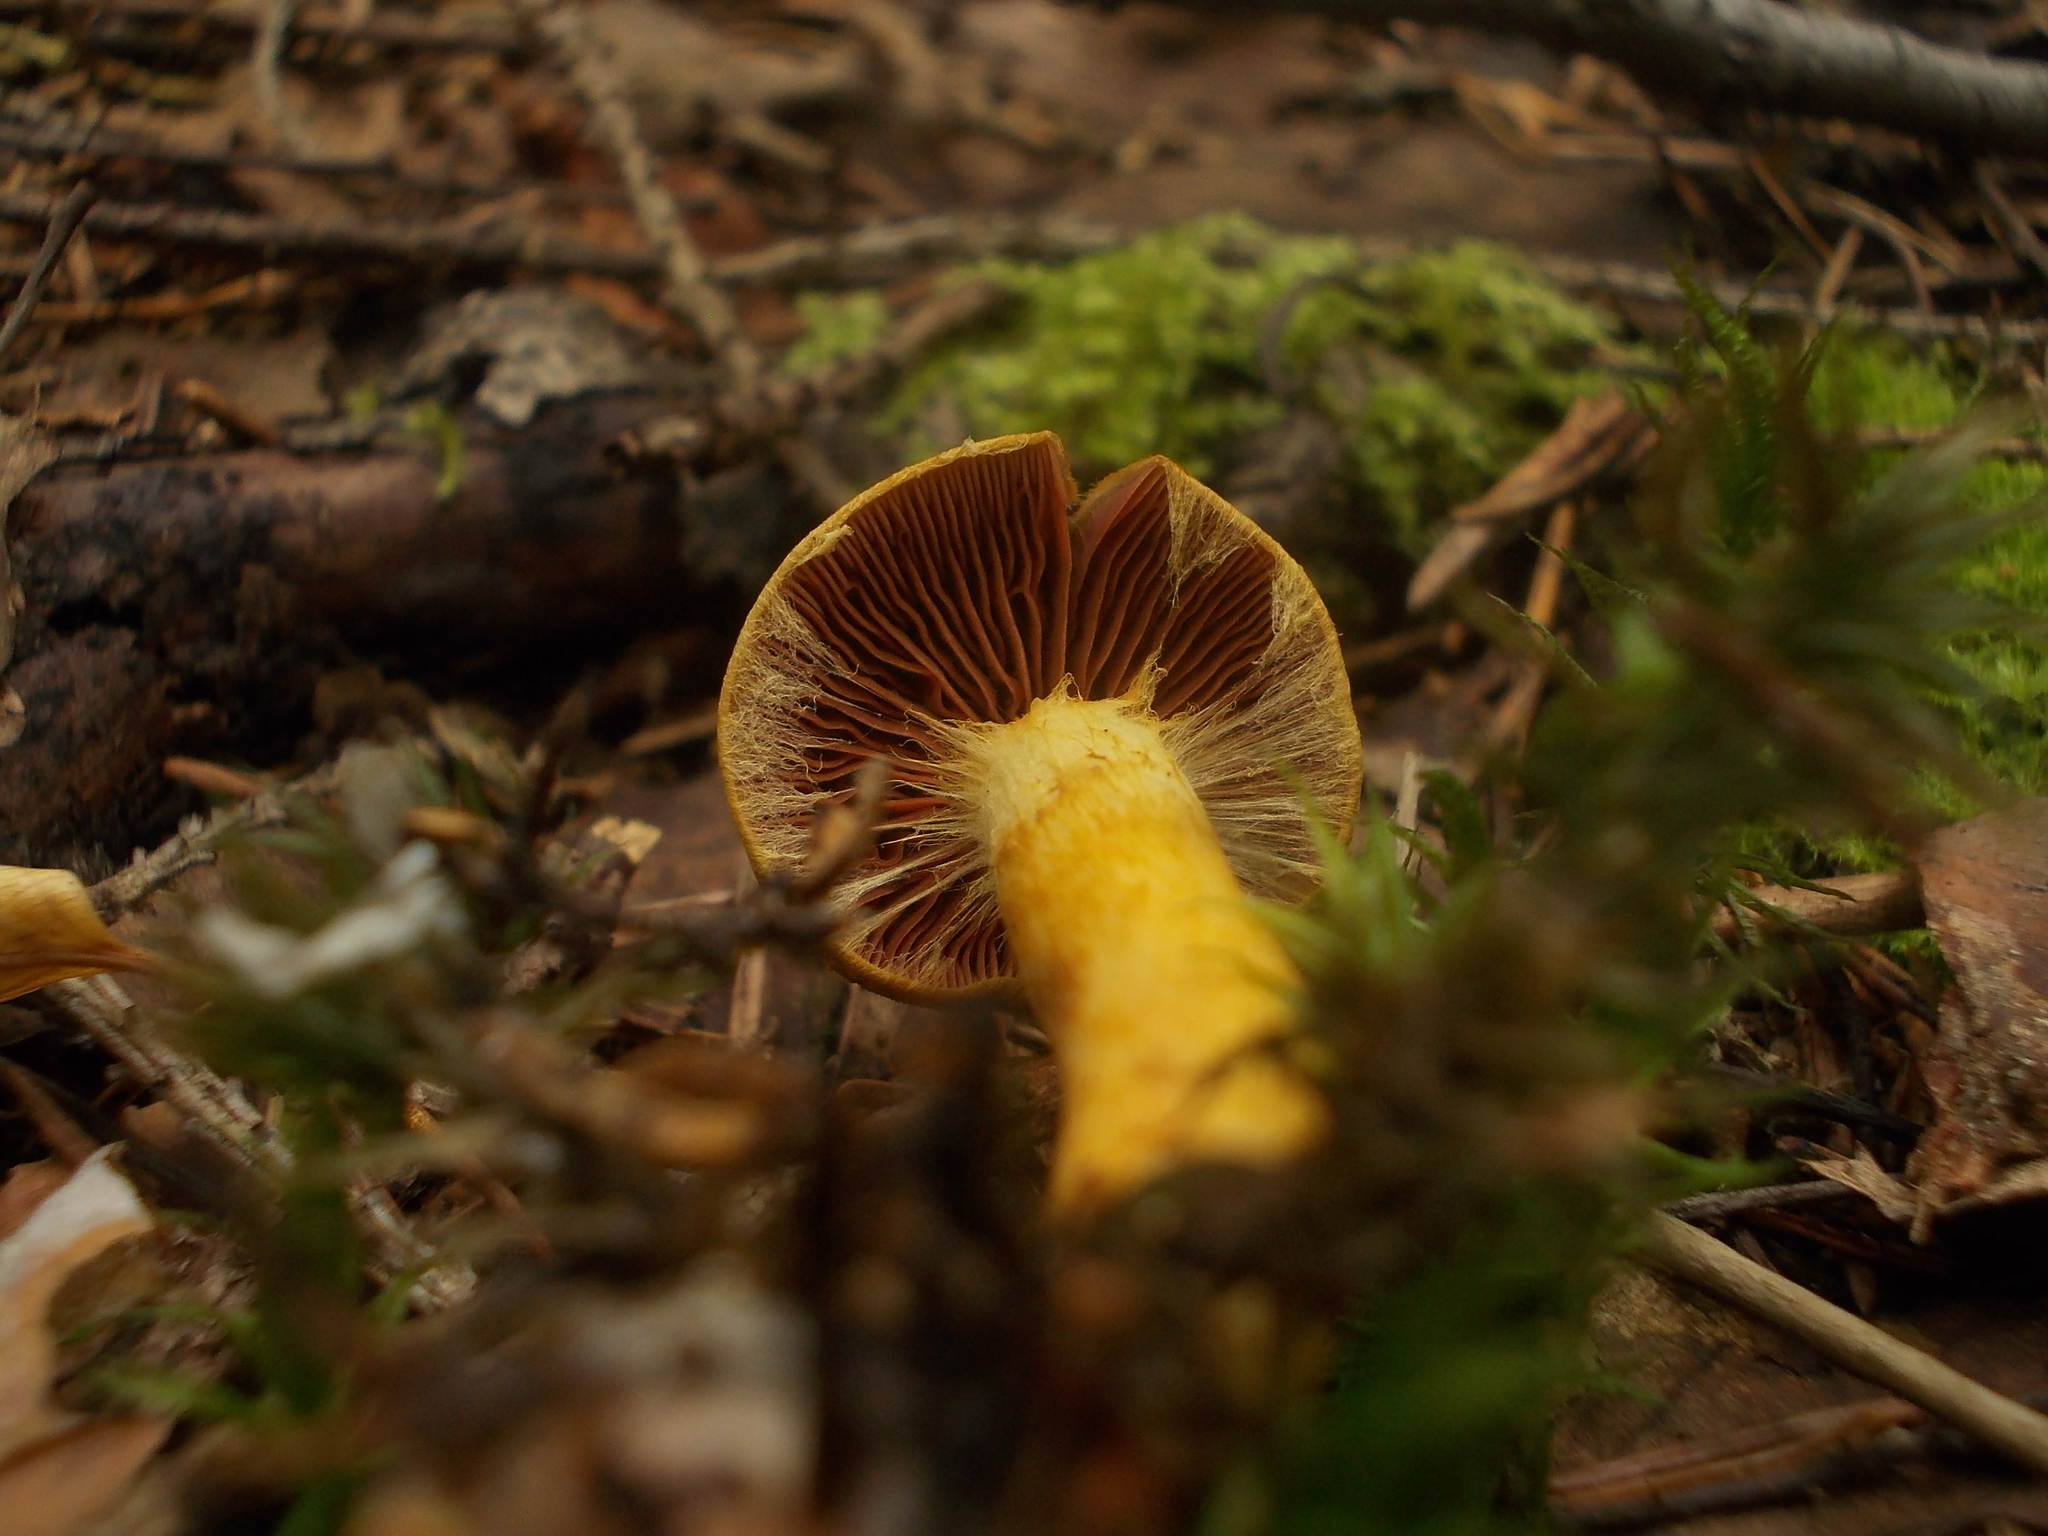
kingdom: Fungi
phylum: Basidiomycota
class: Agaricomycetes
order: Agaricales
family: Cortinariaceae
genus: Cortinarius
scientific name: Cortinarius semisanguineus
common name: Surprise webcap
